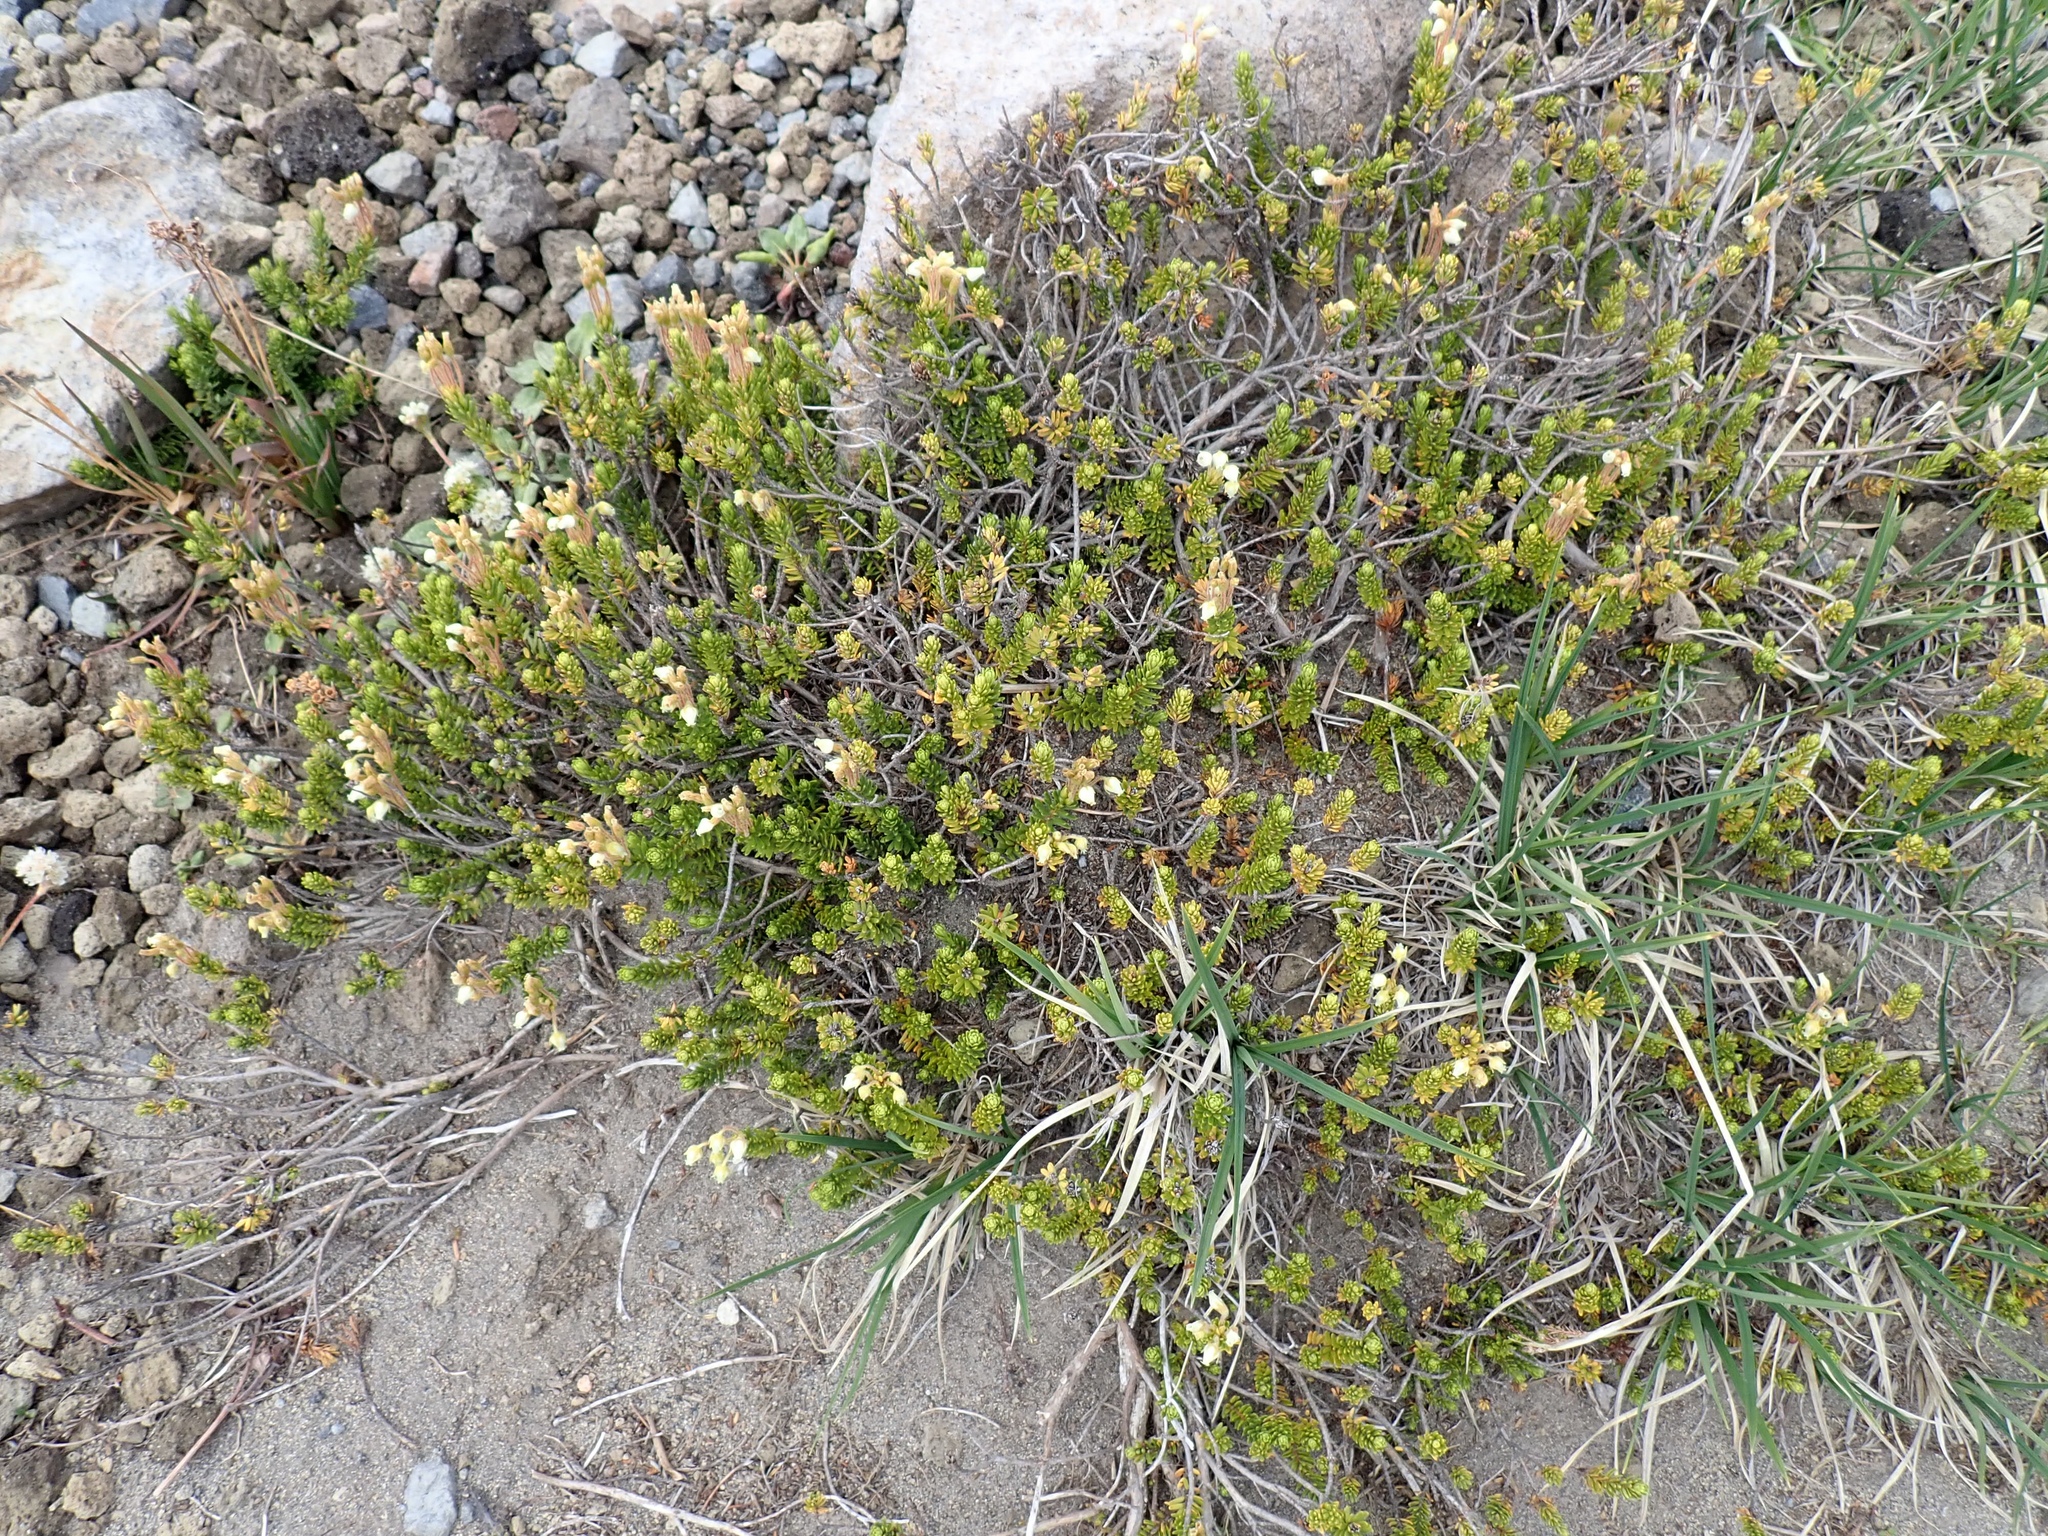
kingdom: Plantae
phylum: Tracheophyta
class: Magnoliopsida
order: Ericales
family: Ericaceae
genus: Phyllodoce
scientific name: Phyllodoce glanduliflora
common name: Cream mountain heather
